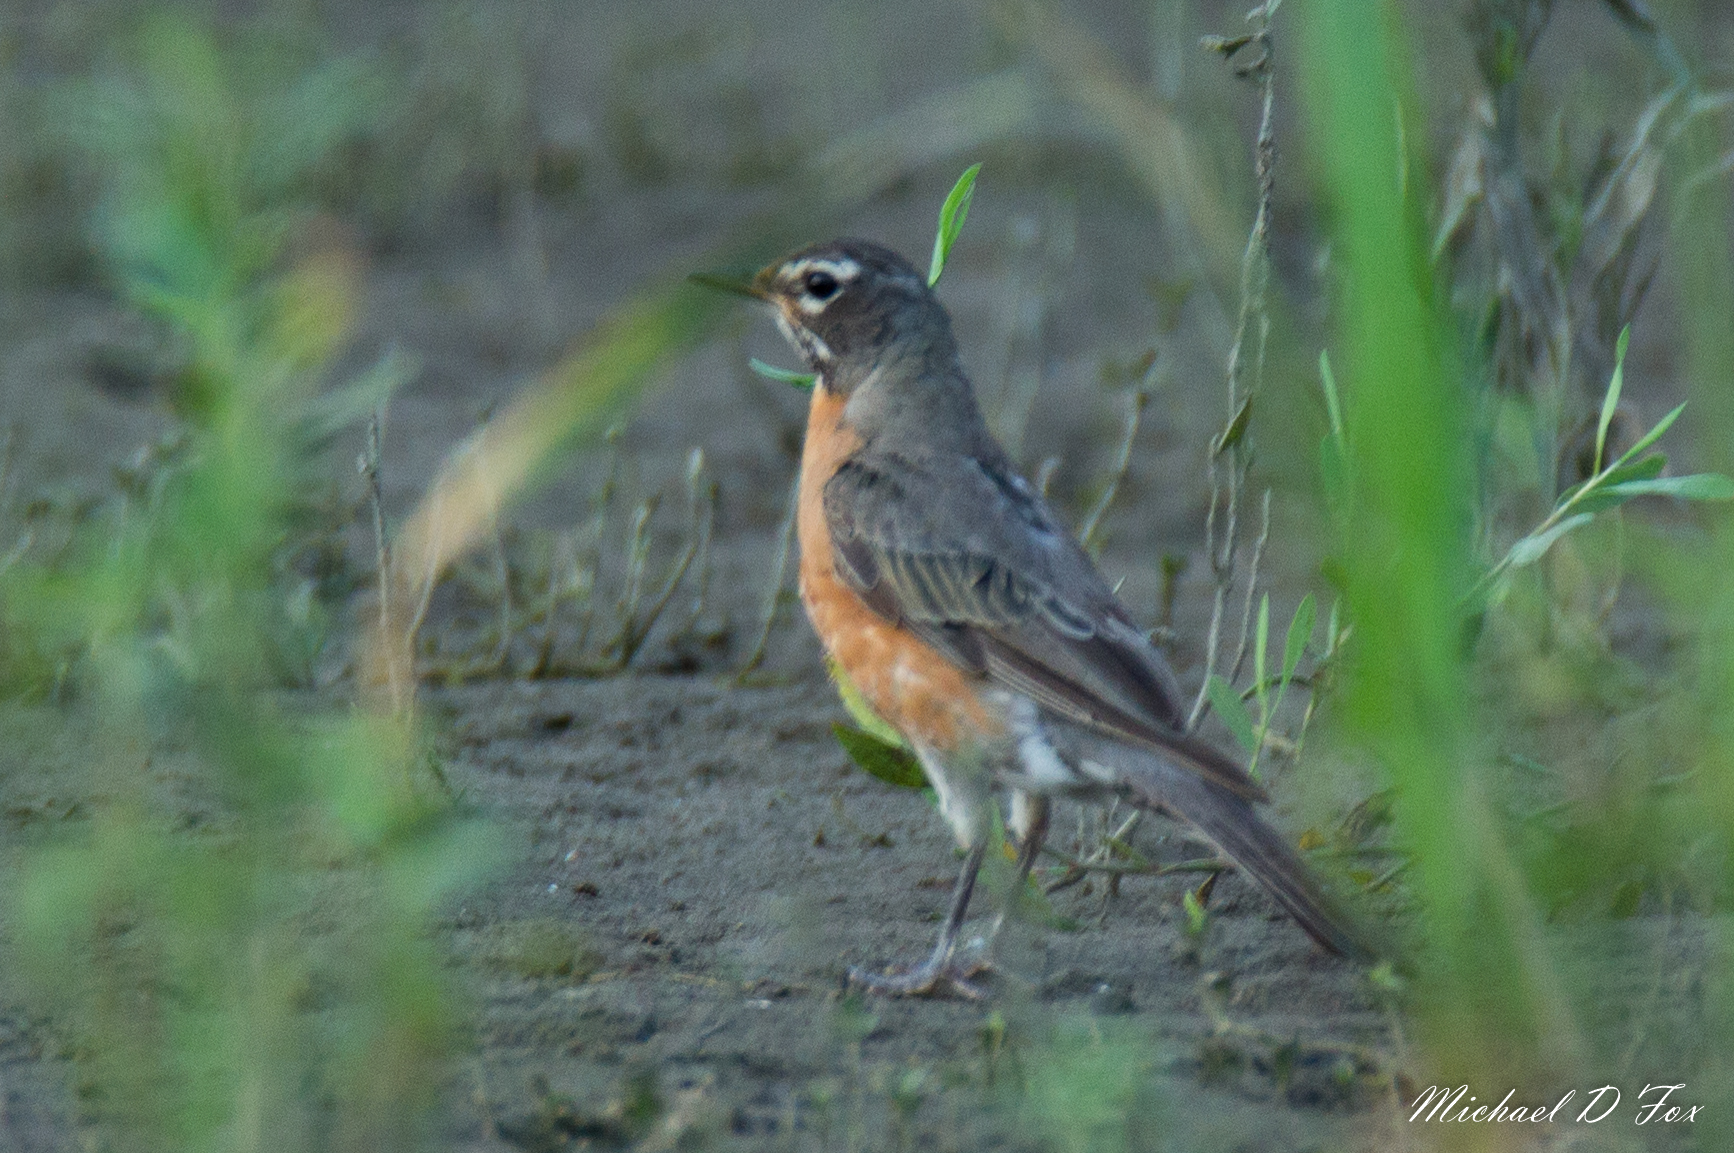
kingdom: Animalia
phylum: Chordata
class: Aves
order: Passeriformes
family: Turdidae
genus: Turdus
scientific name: Turdus migratorius
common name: American robin
